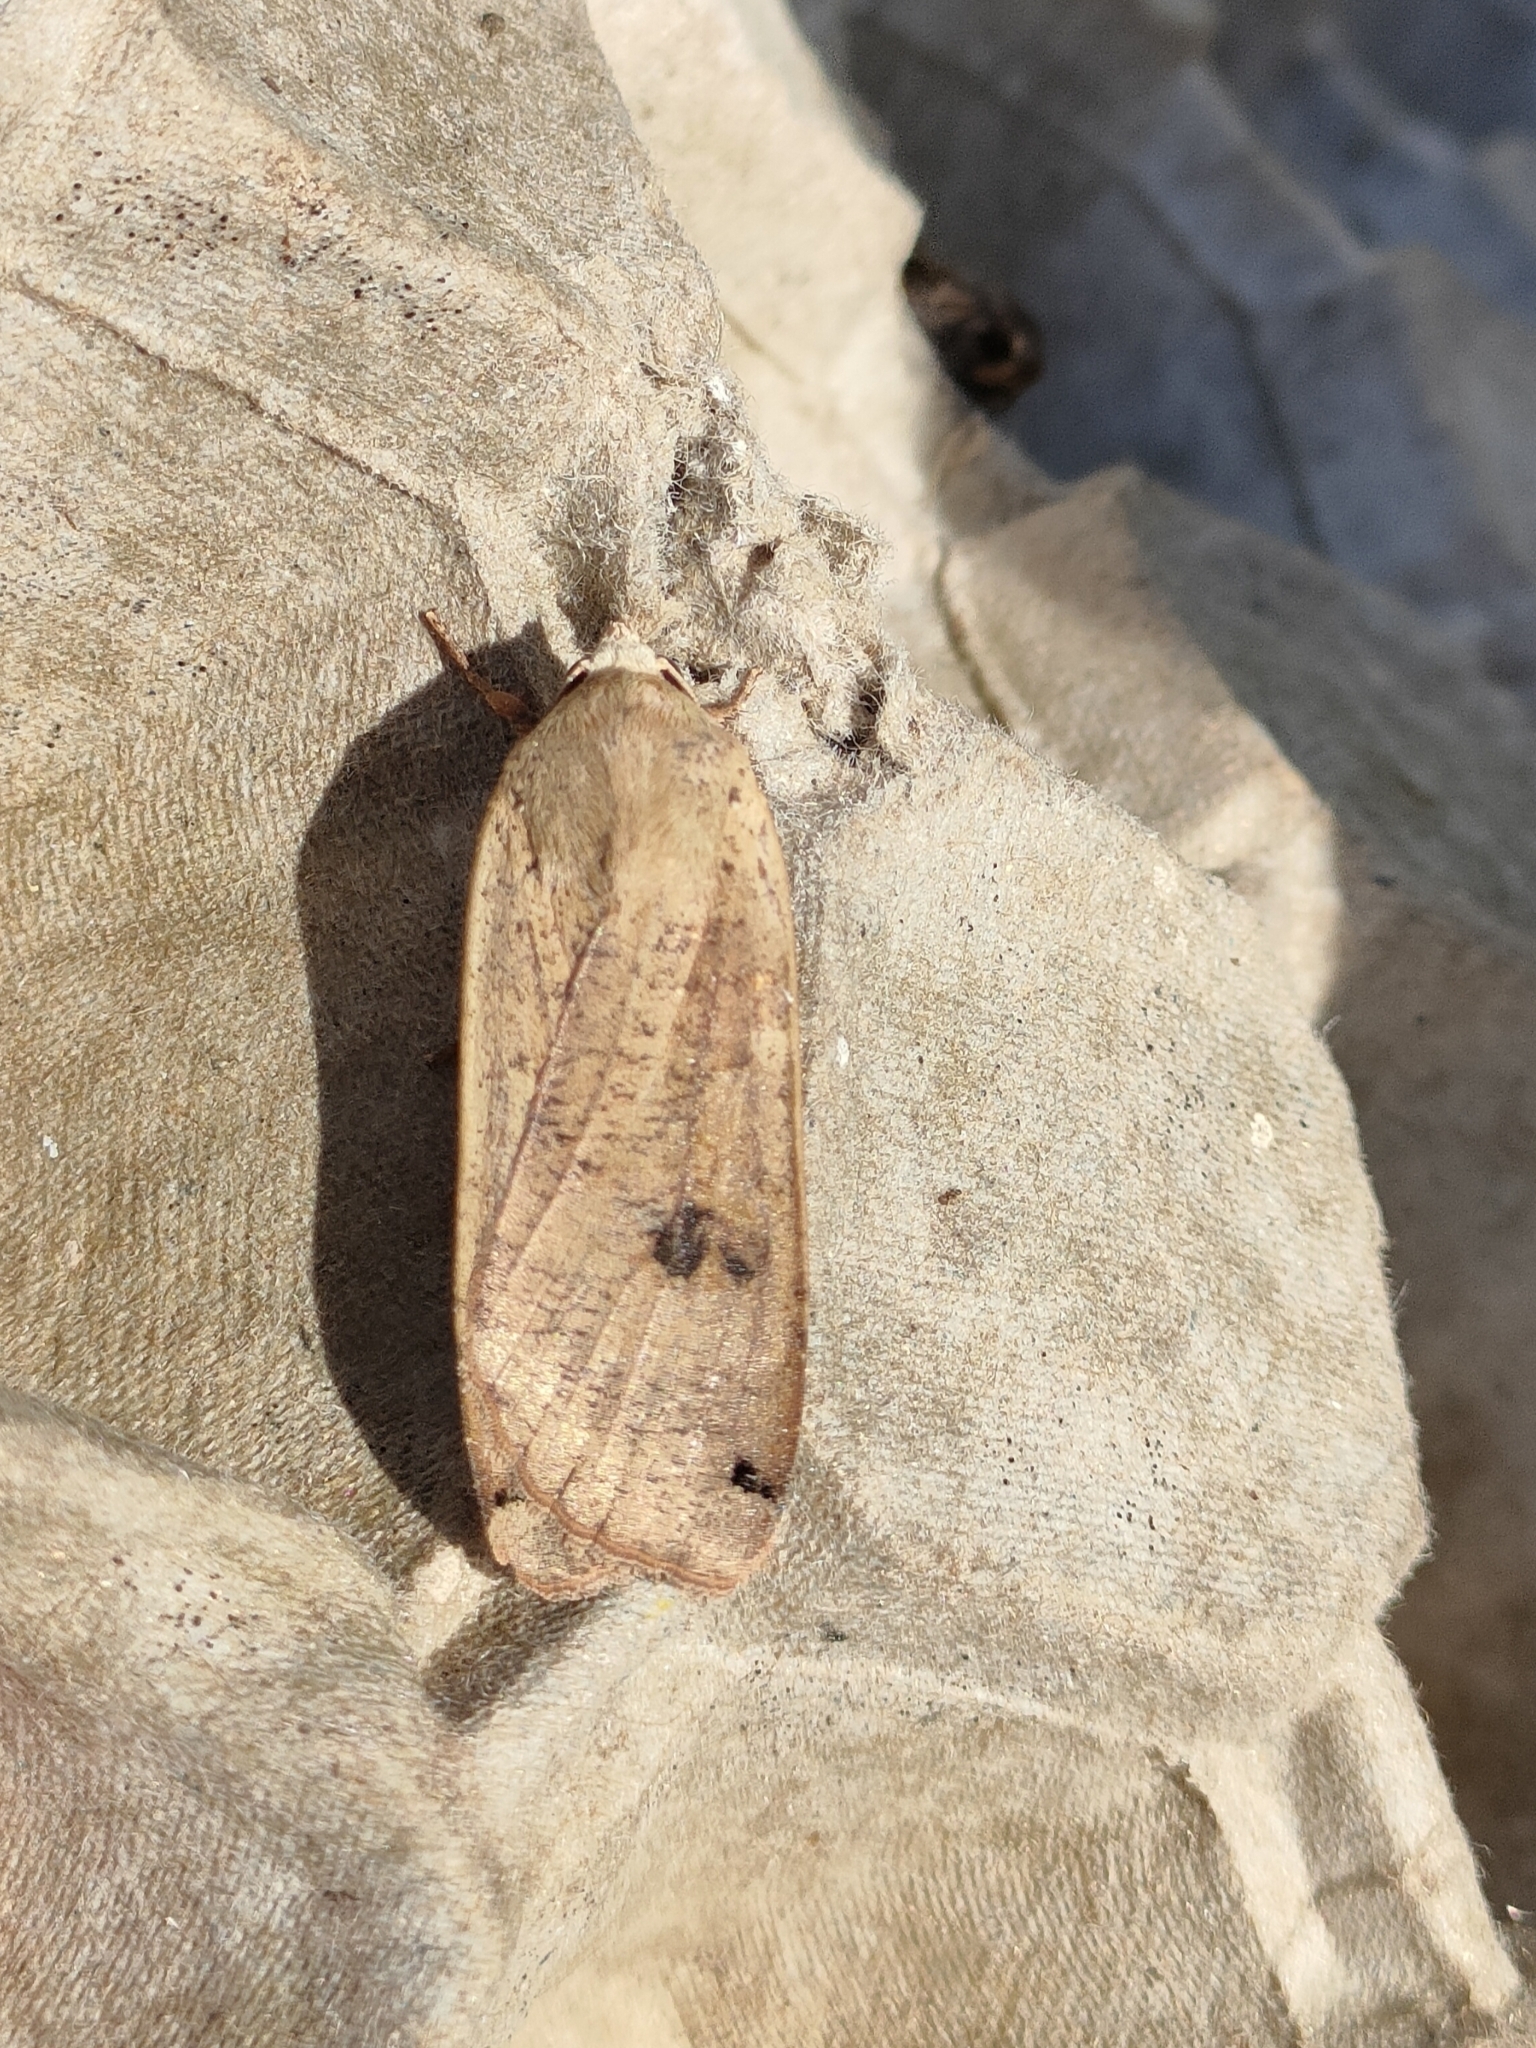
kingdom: Animalia
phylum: Arthropoda
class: Insecta
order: Lepidoptera
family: Noctuidae
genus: Noctua
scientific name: Noctua pronuba
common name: Large yellow underwing
